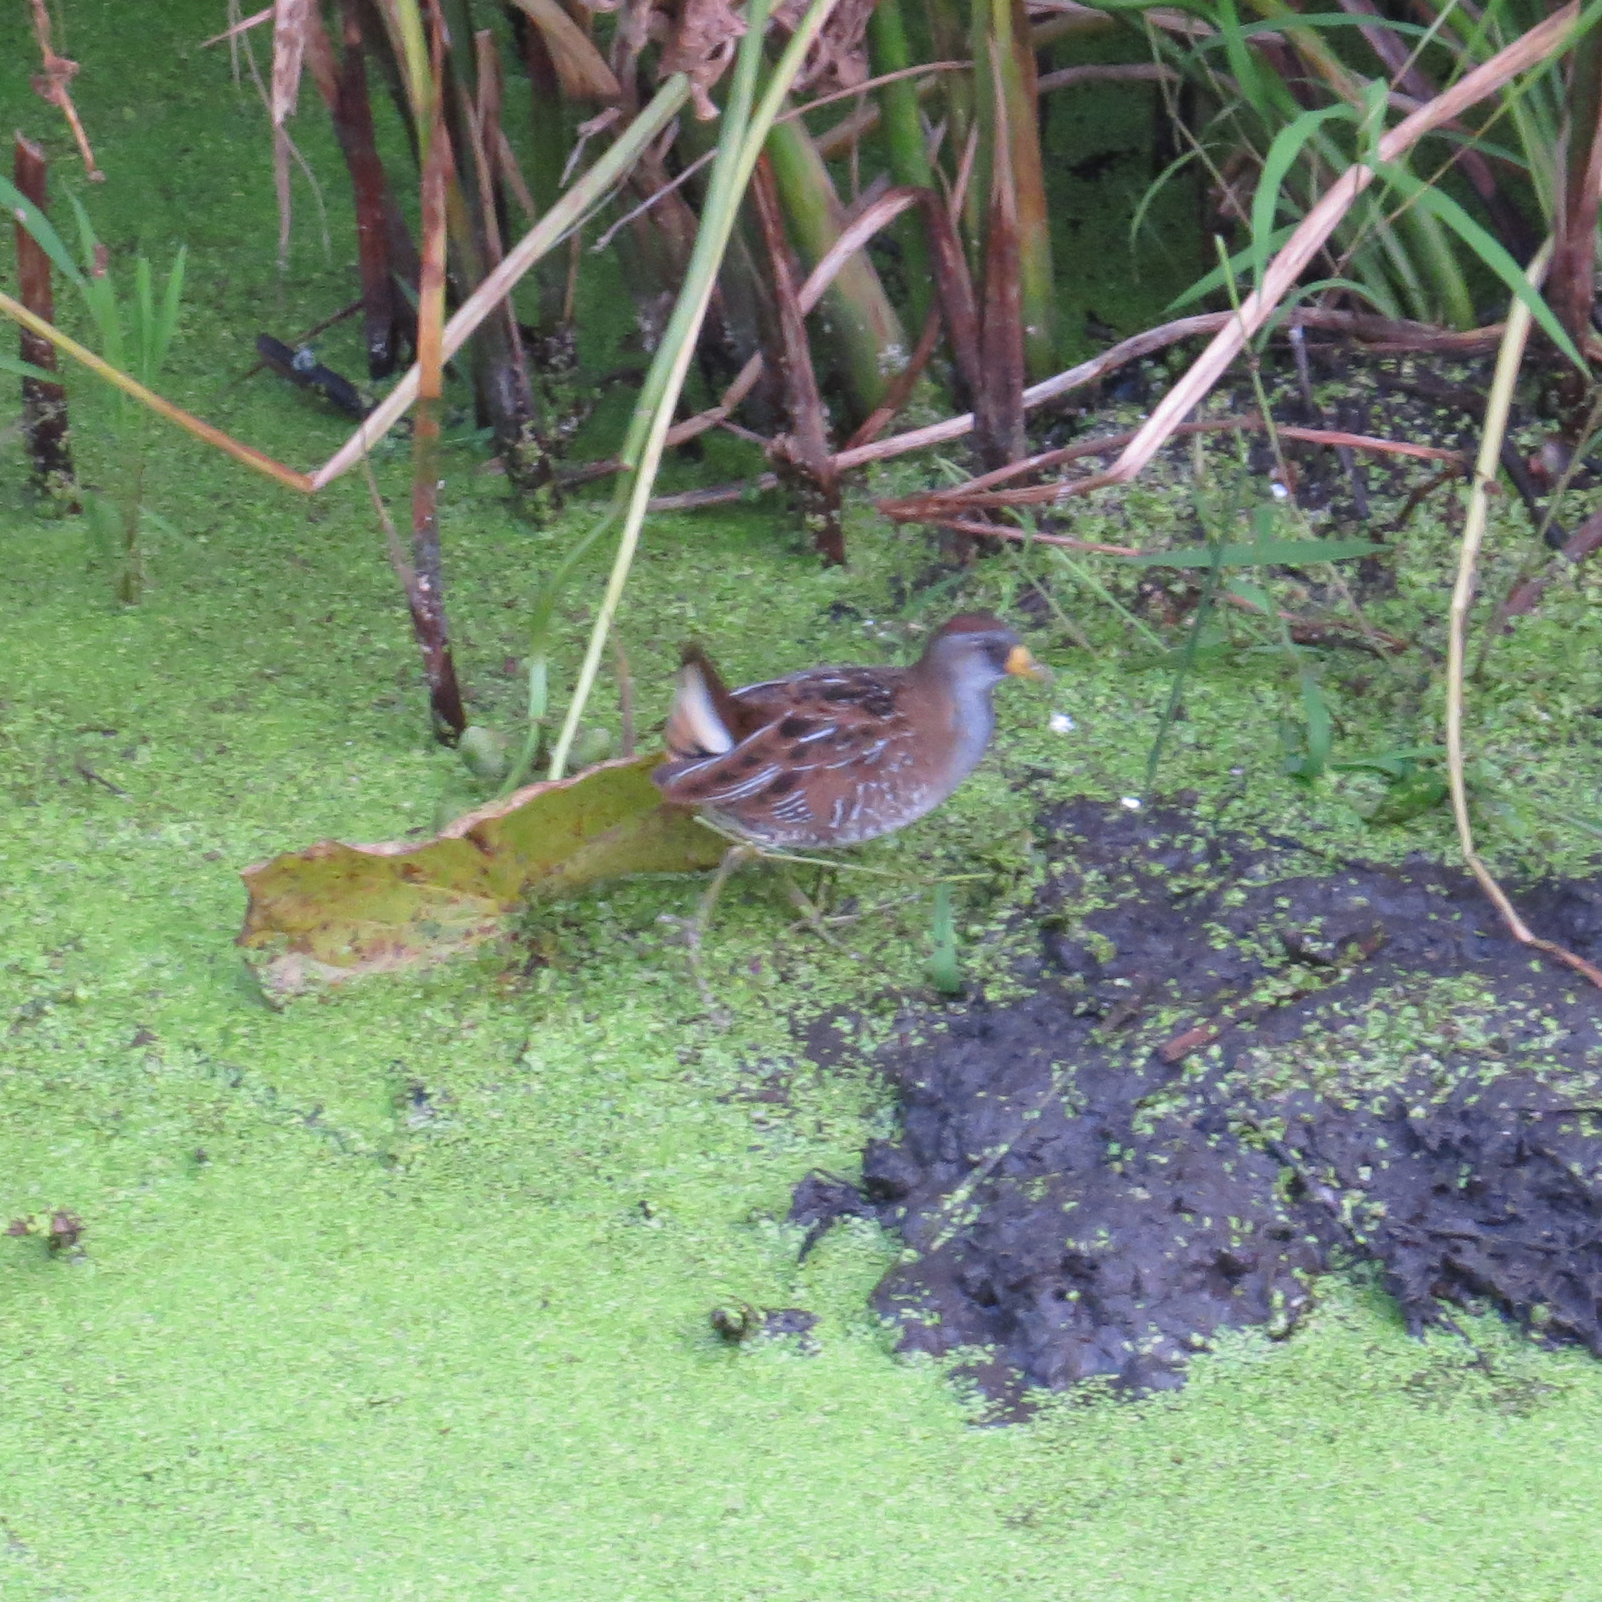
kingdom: Animalia
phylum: Chordata
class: Aves
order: Gruiformes
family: Rallidae
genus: Porzana
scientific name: Porzana carolina
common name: Sora
